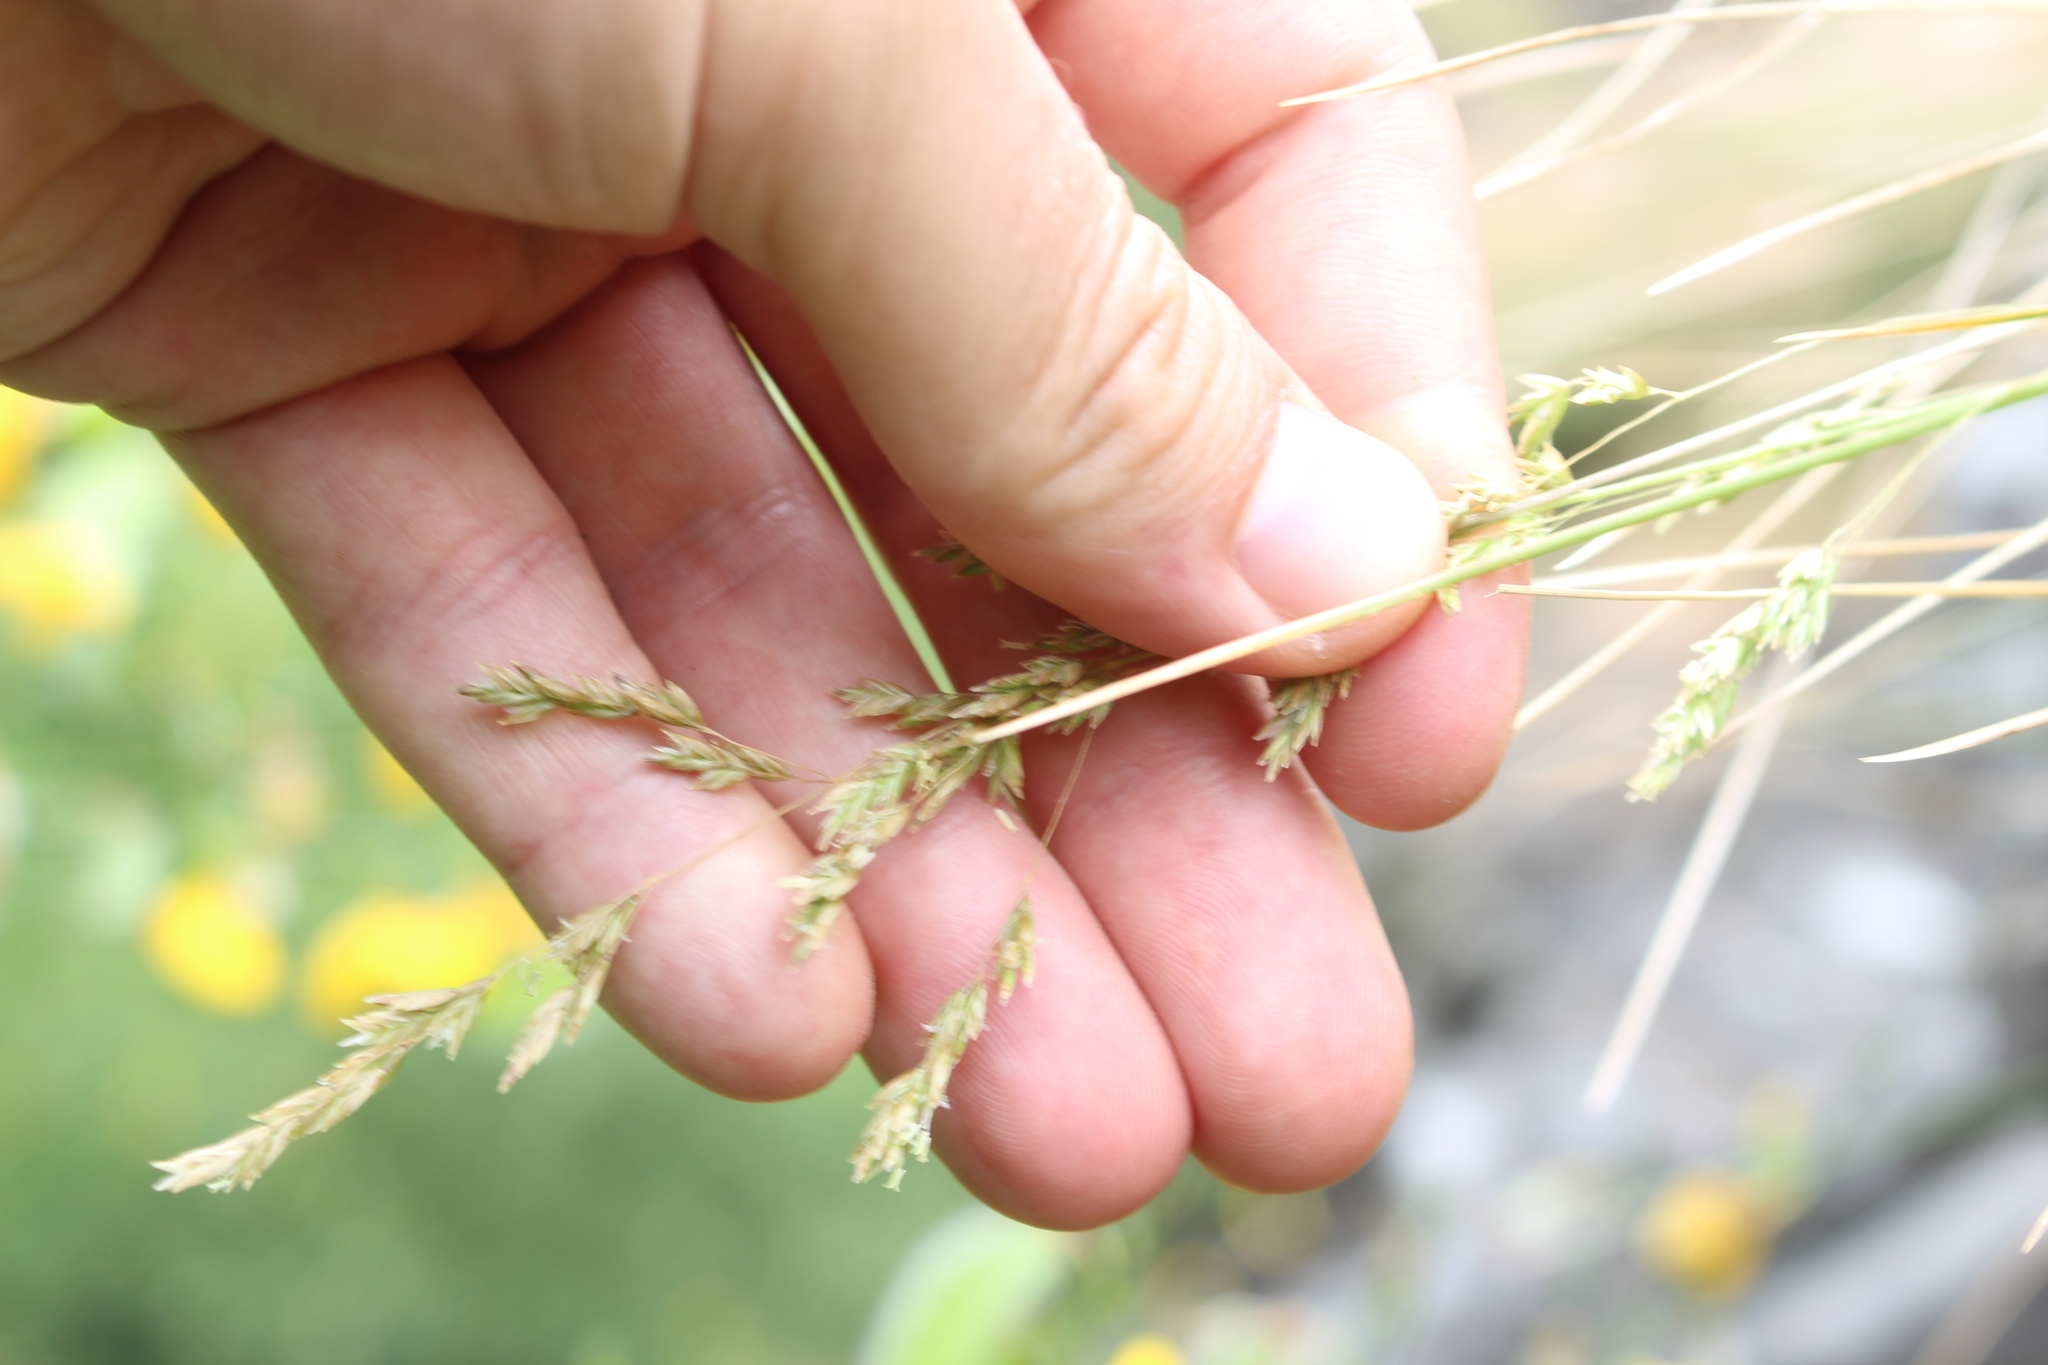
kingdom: Plantae
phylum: Tracheophyta
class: Liliopsida
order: Poales
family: Poaceae
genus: Poa
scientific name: Poa cita
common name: Silver tussock
